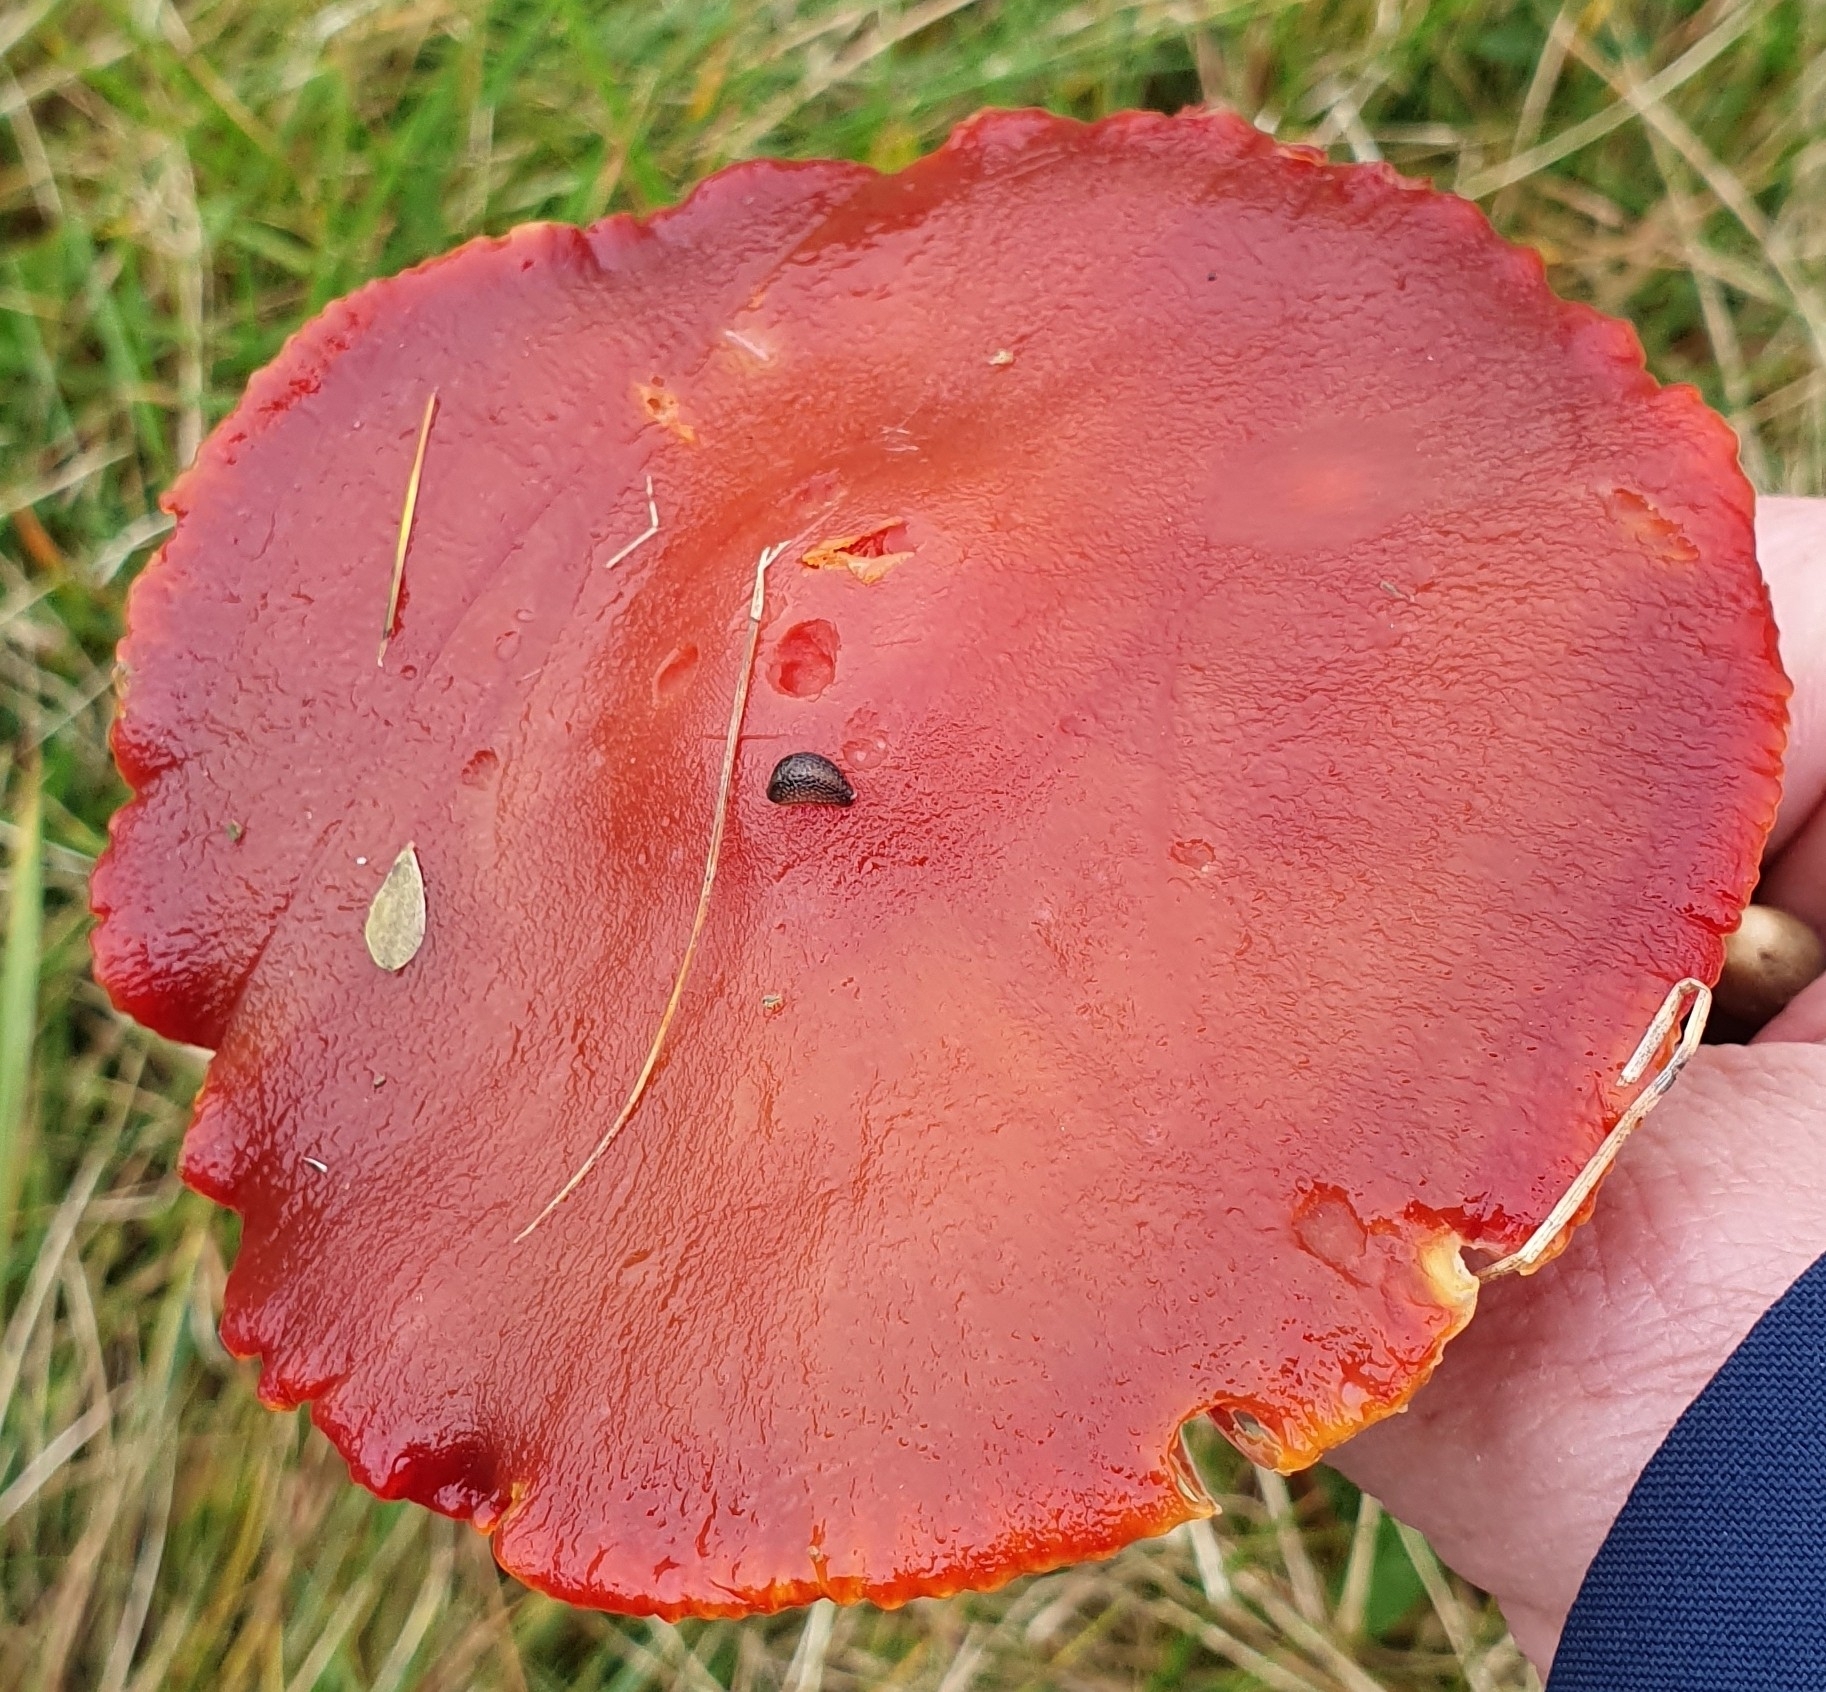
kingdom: Fungi
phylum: Basidiomycota
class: Agaricomycetes
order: Agaricales
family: Hygrophoraceae
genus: Hygrocybe
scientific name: Hygrocybe punicea
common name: Crimson waxcap
